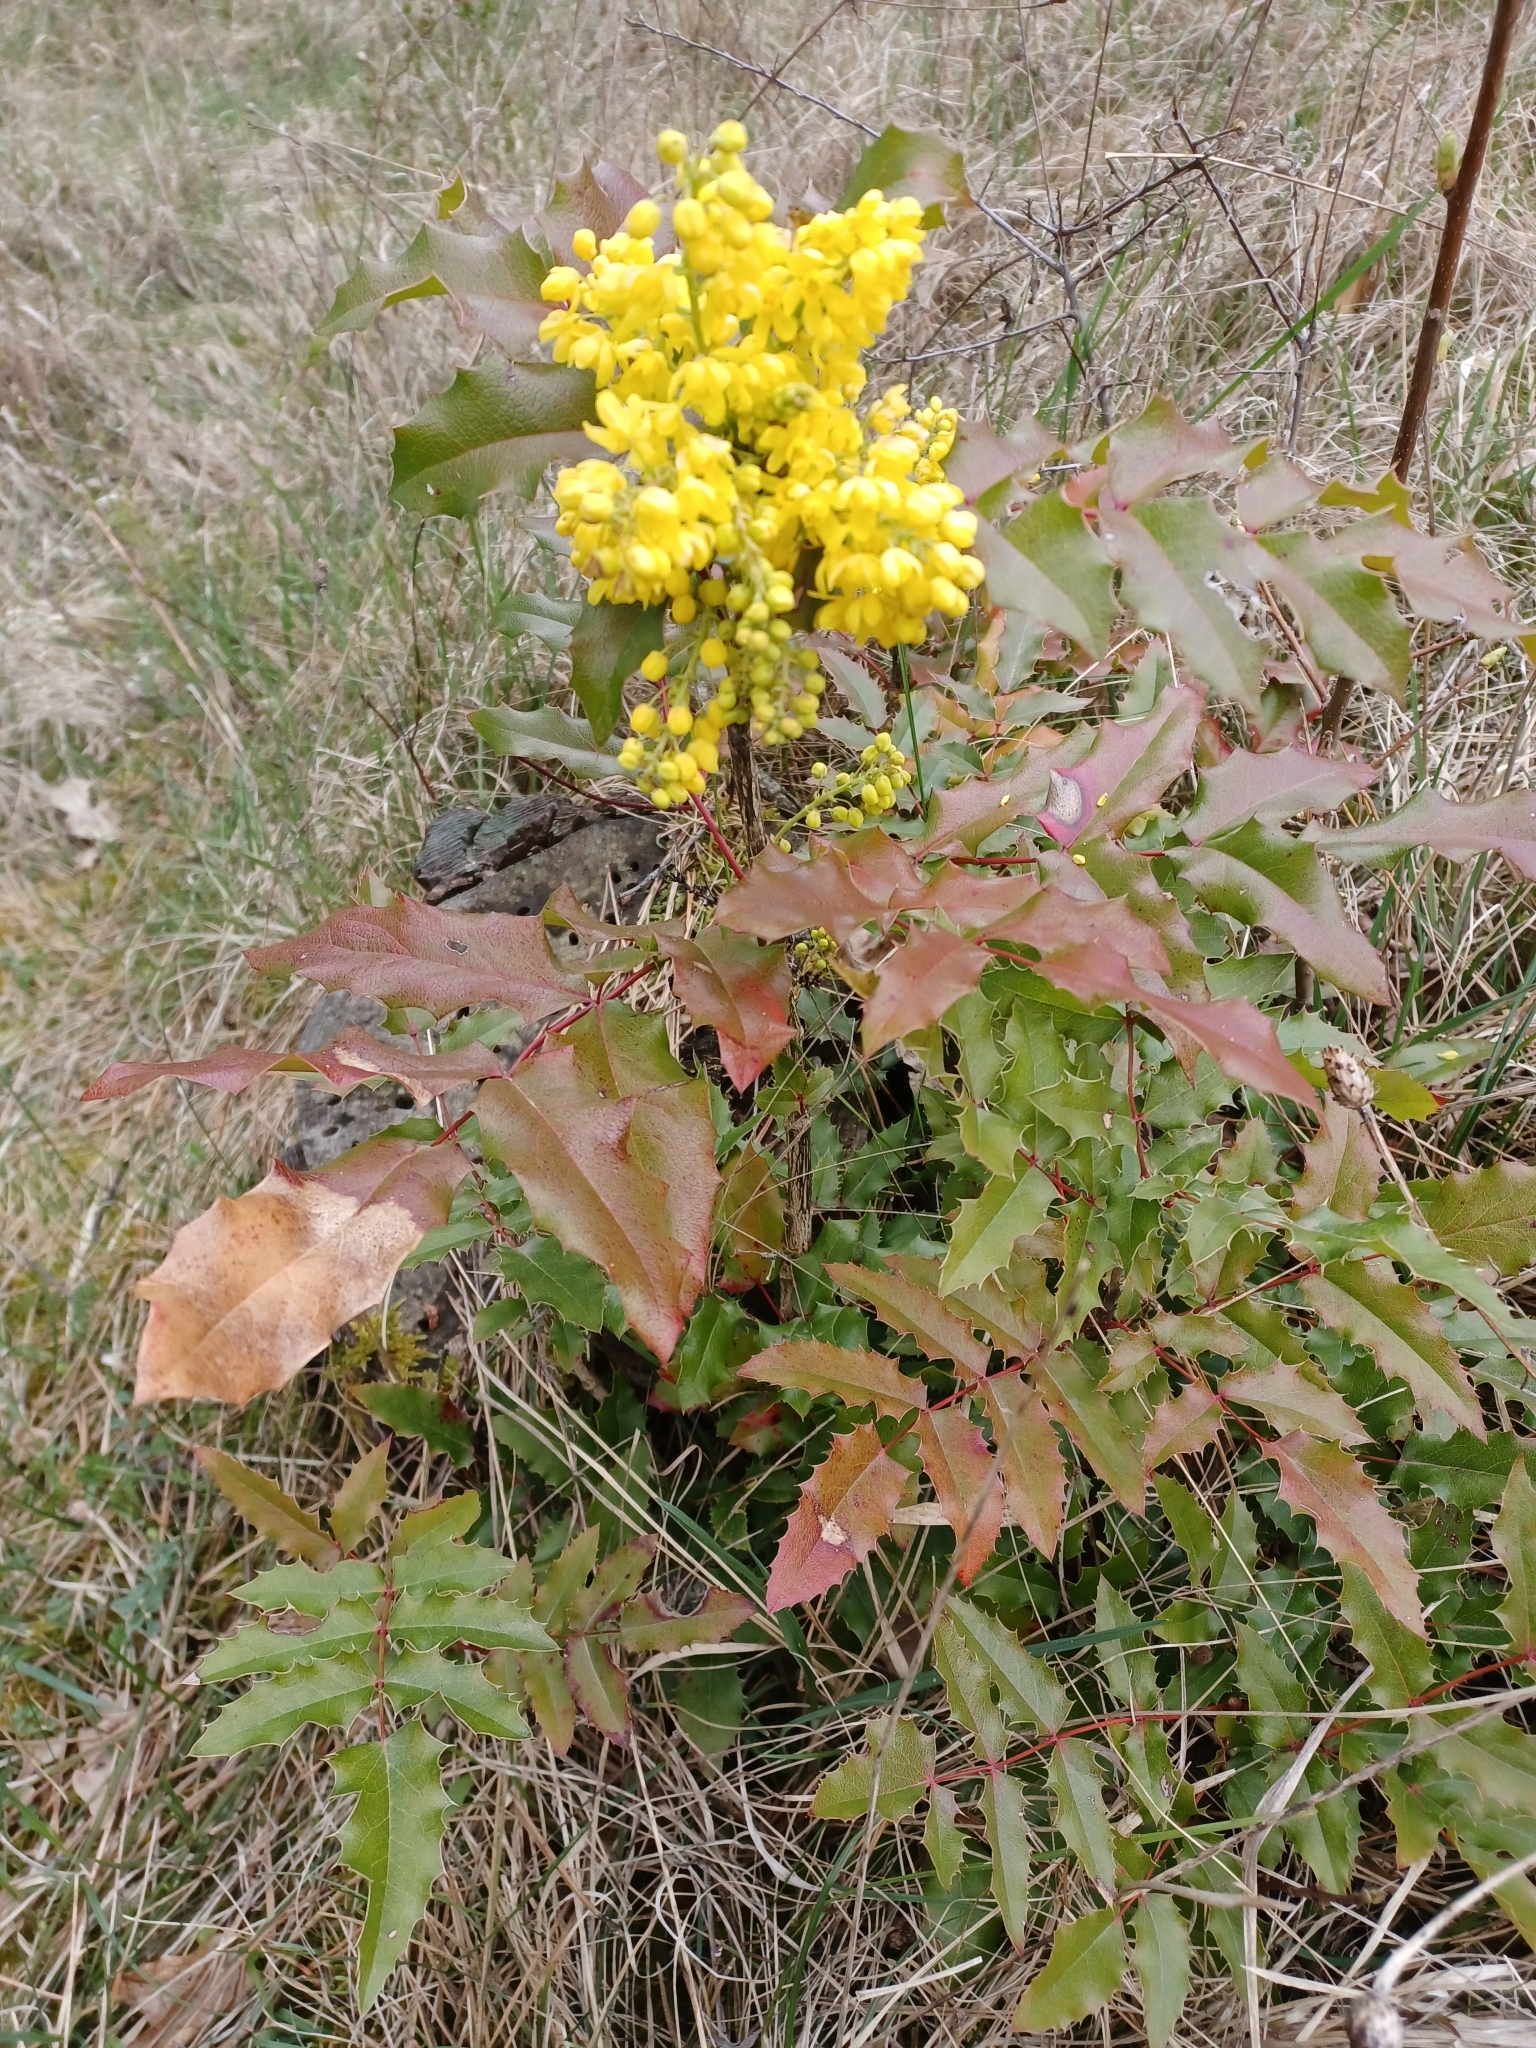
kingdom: Plantae
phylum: Tracheophyta
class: Magnoliopsida
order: Ranunculales
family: Berberidaceae
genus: Mahonia
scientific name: Mahonia aquifolium
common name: Oregon-grape
